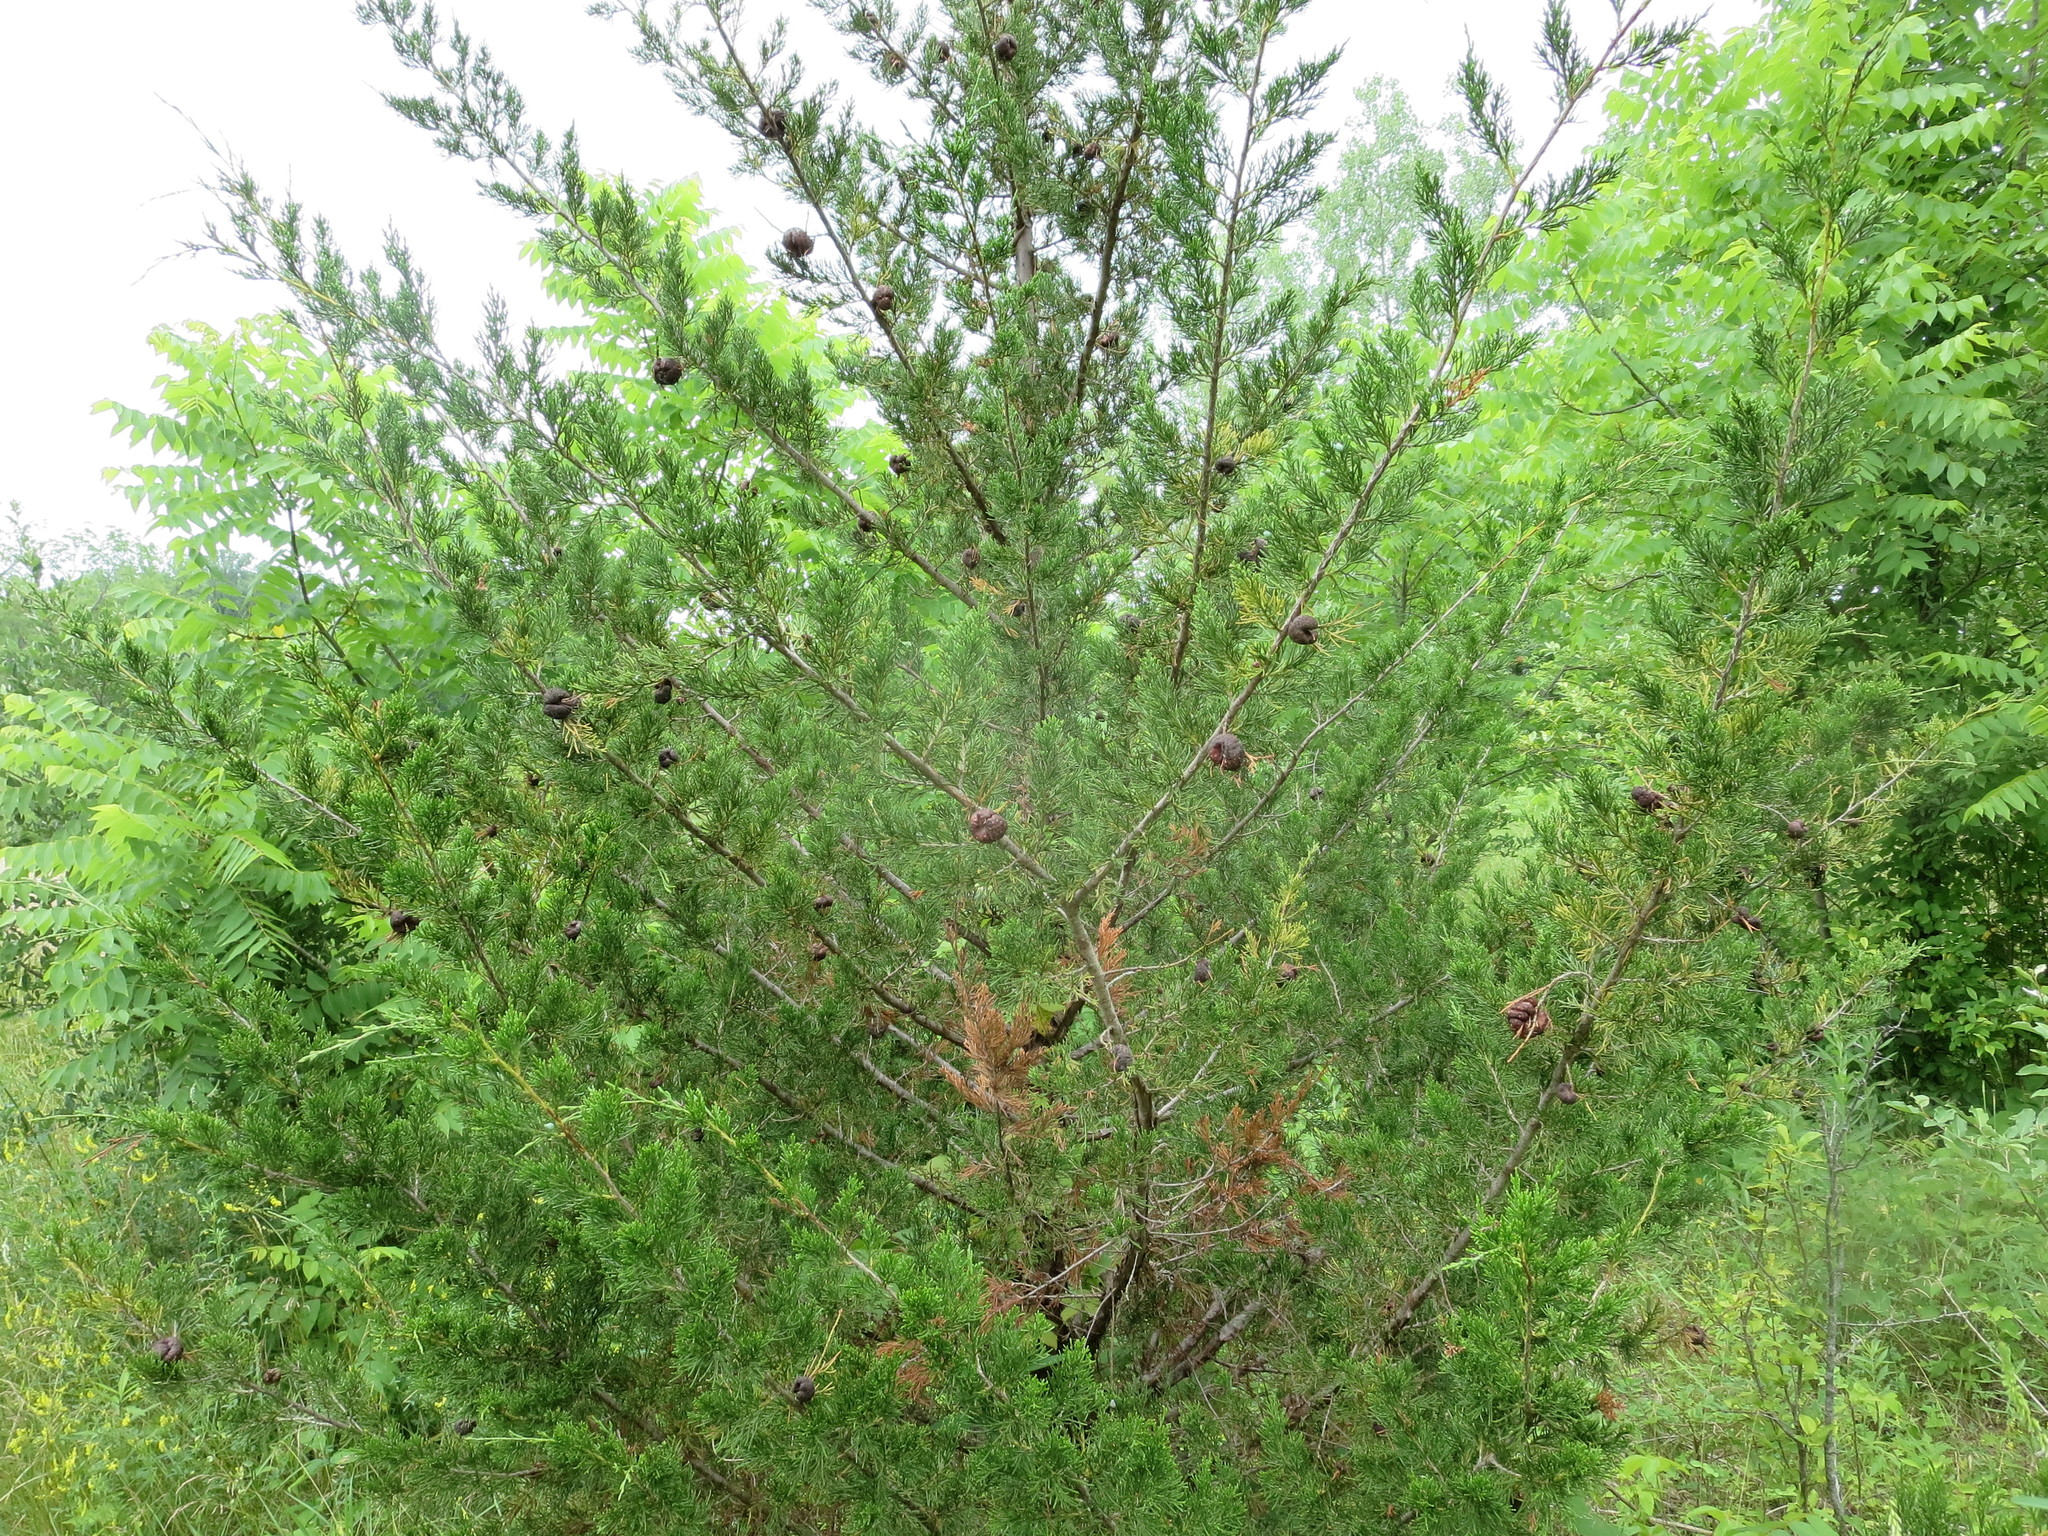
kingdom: Fungi
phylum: Basidiomycota
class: Pucciniomycetes
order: Pucciniales
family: Gymnosporangiaceae
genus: Gymnosporangium
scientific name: Gymnosporangium juniperi-virginianae
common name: Juniper-apple rust
